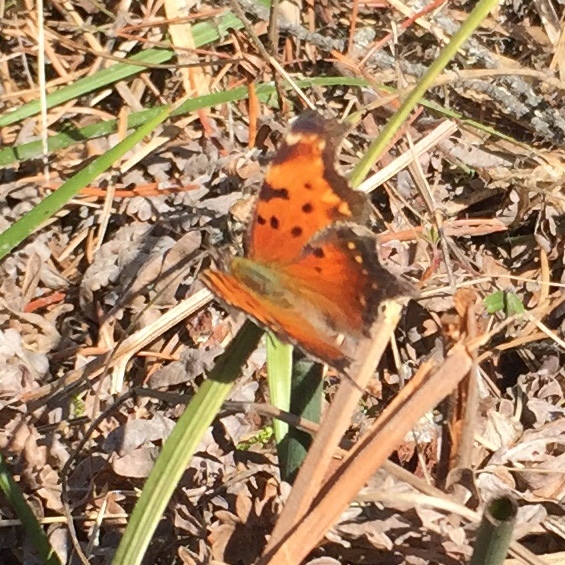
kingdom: Animalia
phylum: Arthropoda
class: Insecta
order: Lepidoptera
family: Nymphalidae
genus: Polygonia
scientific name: Polygonia progne
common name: Gray comma
